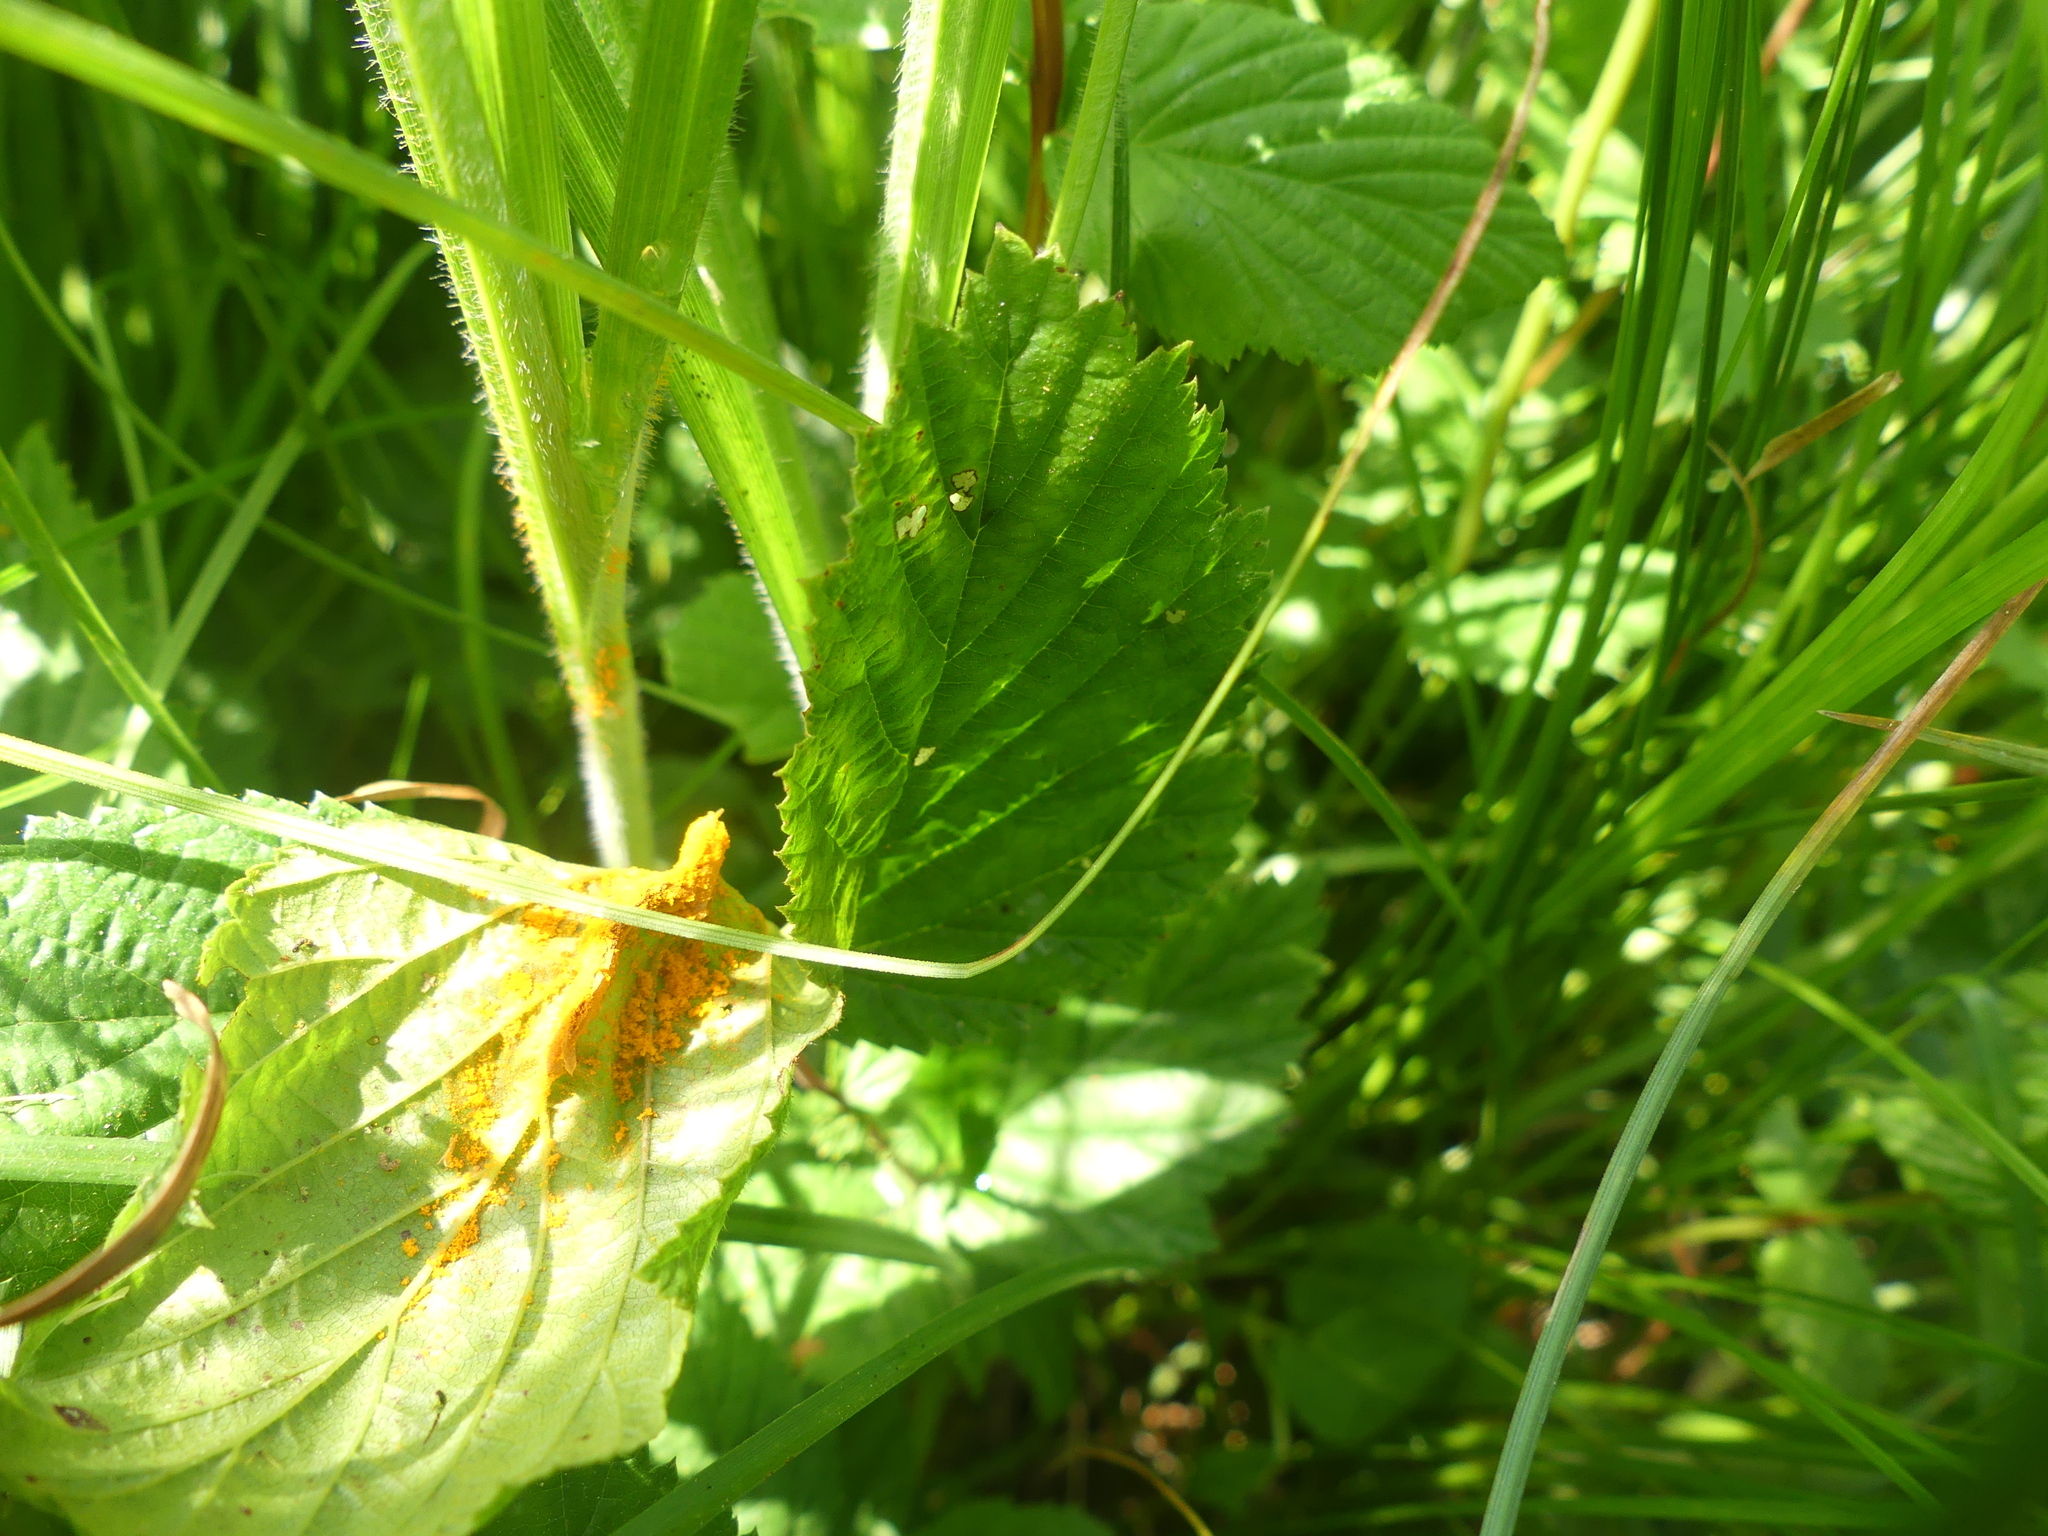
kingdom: Fungi
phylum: Basidiomycota
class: Pucciniomycetes
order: Pucciniales
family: Raveneliaceae
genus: Triphragmium
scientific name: Triphragmium ulmariae
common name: Meadowsweet rust
